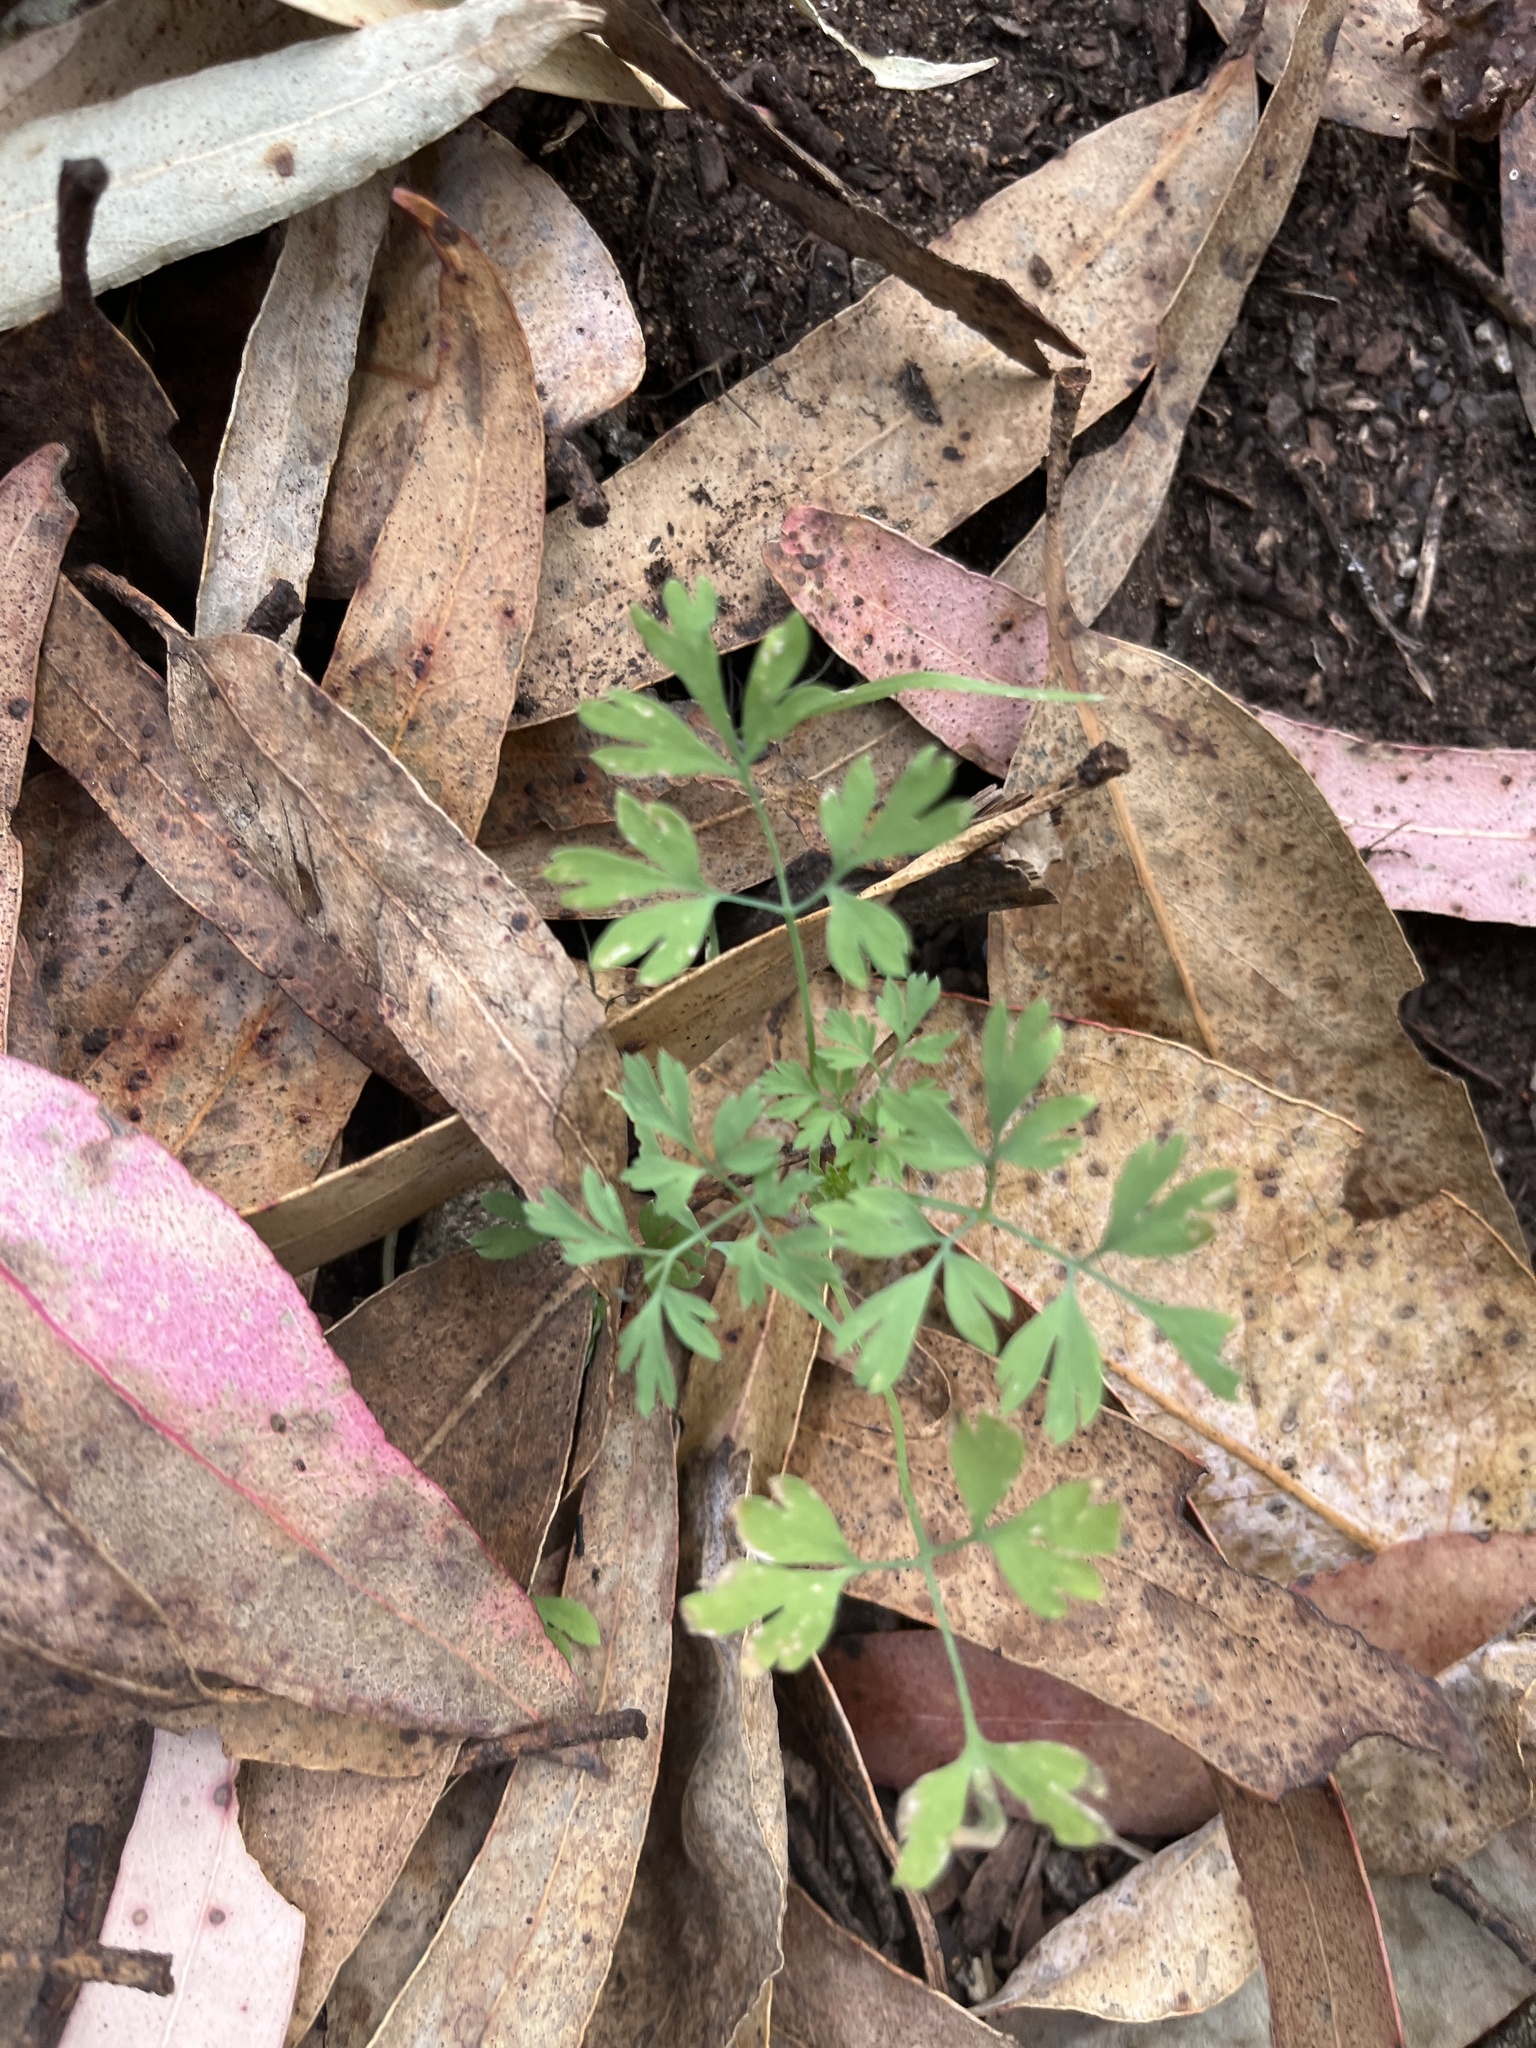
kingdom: Plantae
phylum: Tracheophyta
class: Magnoliopsida
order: Ranunculales
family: Papaveraceae
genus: Fumaria
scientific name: Fumaria
